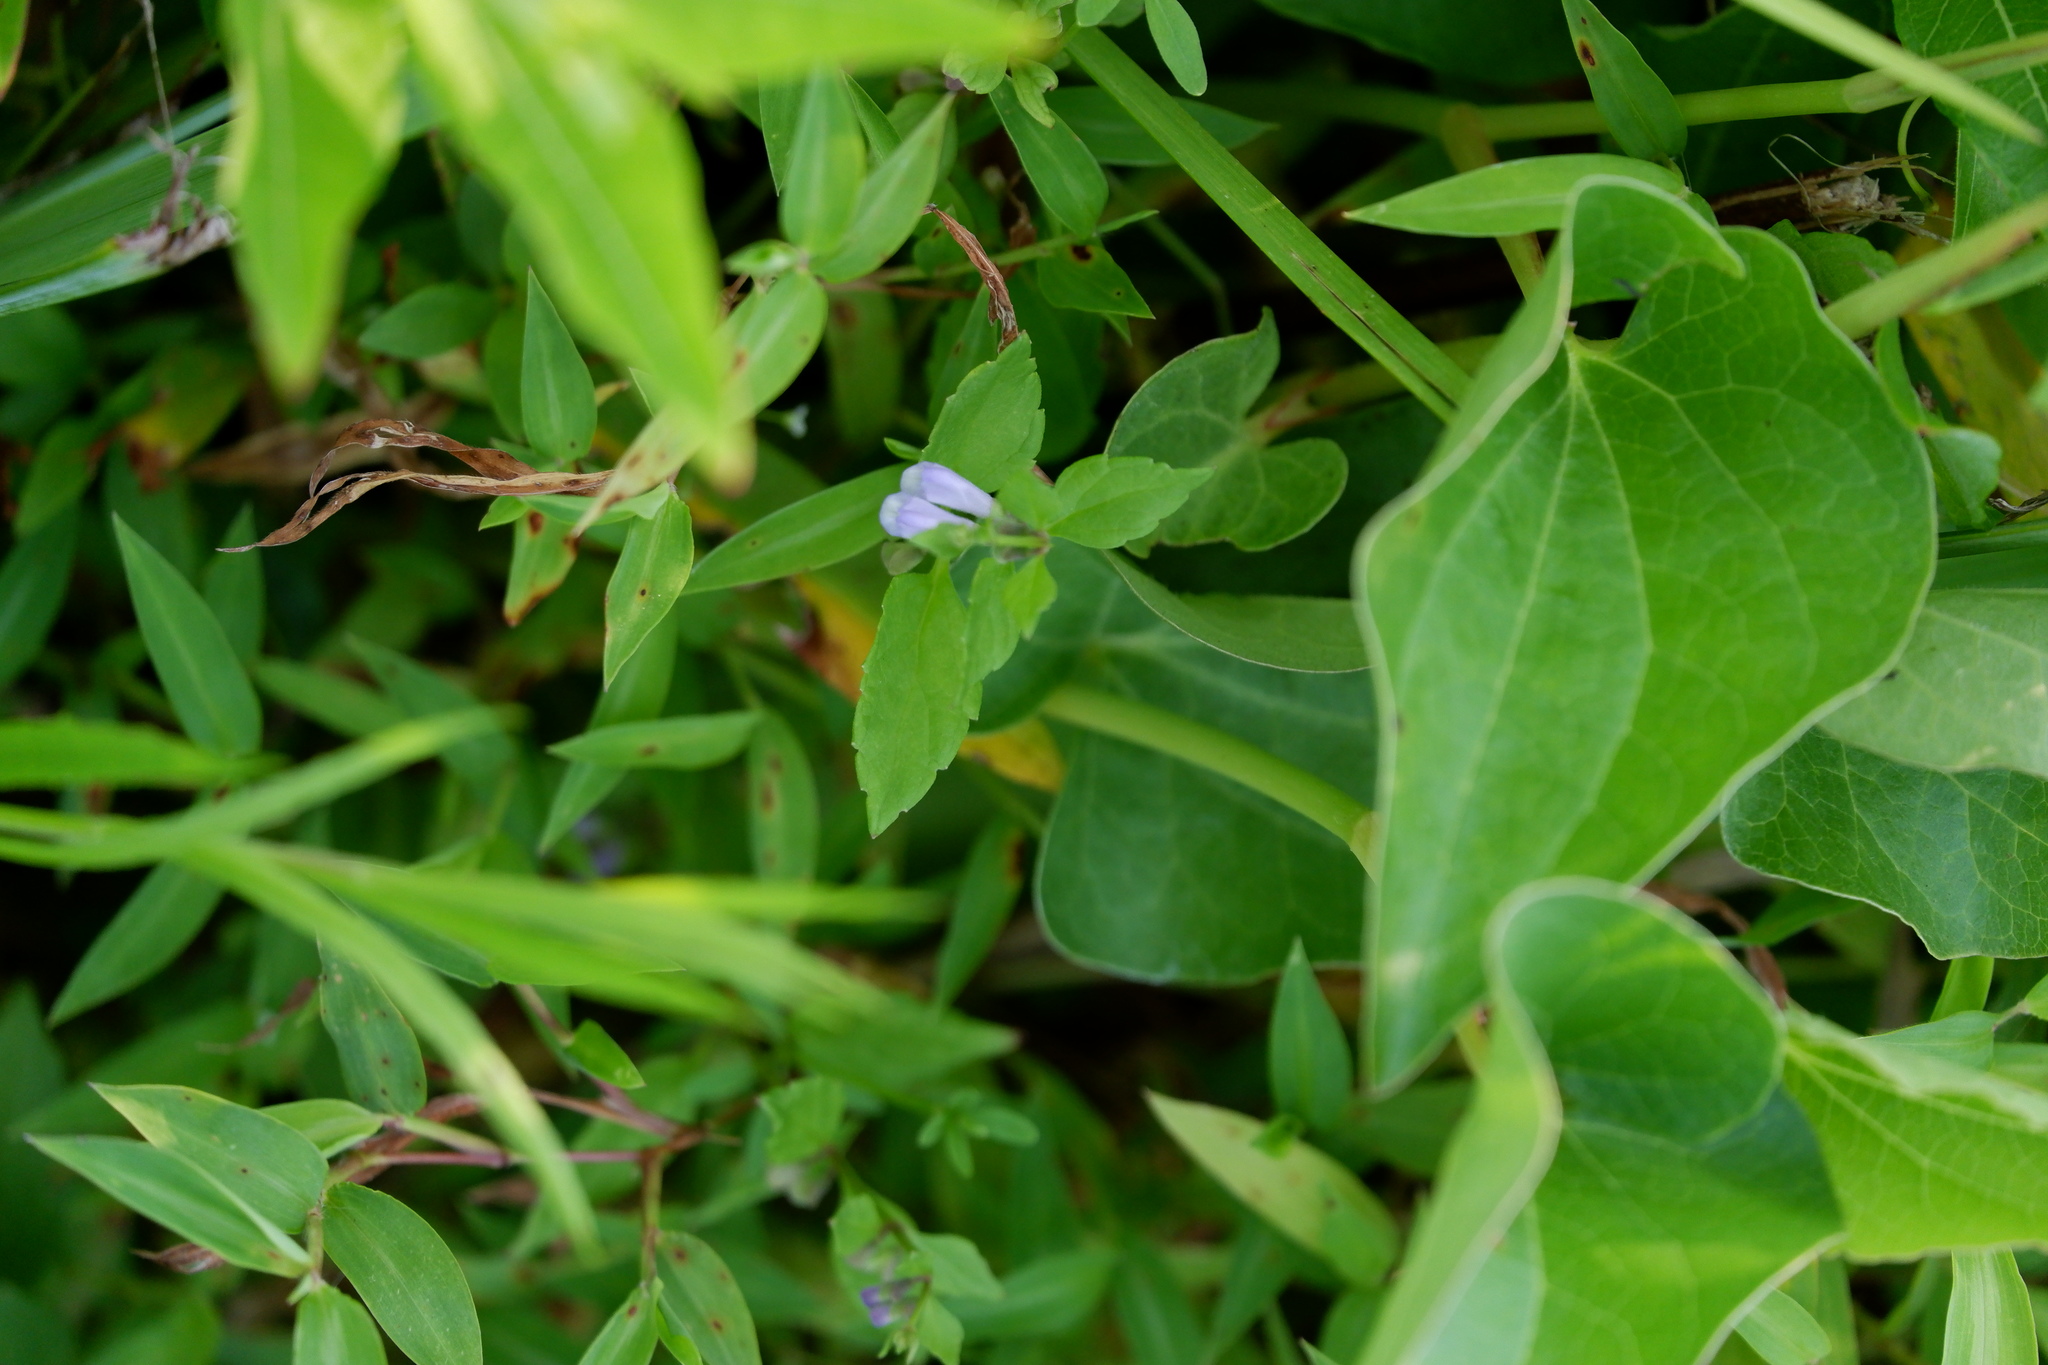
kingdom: Plantae
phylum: Tracheophyta
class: Magnoliopsida
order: Lamiales
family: Lamiaceae
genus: Scutellaria
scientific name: Scutellaria lateriflora
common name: Blue skullcap
